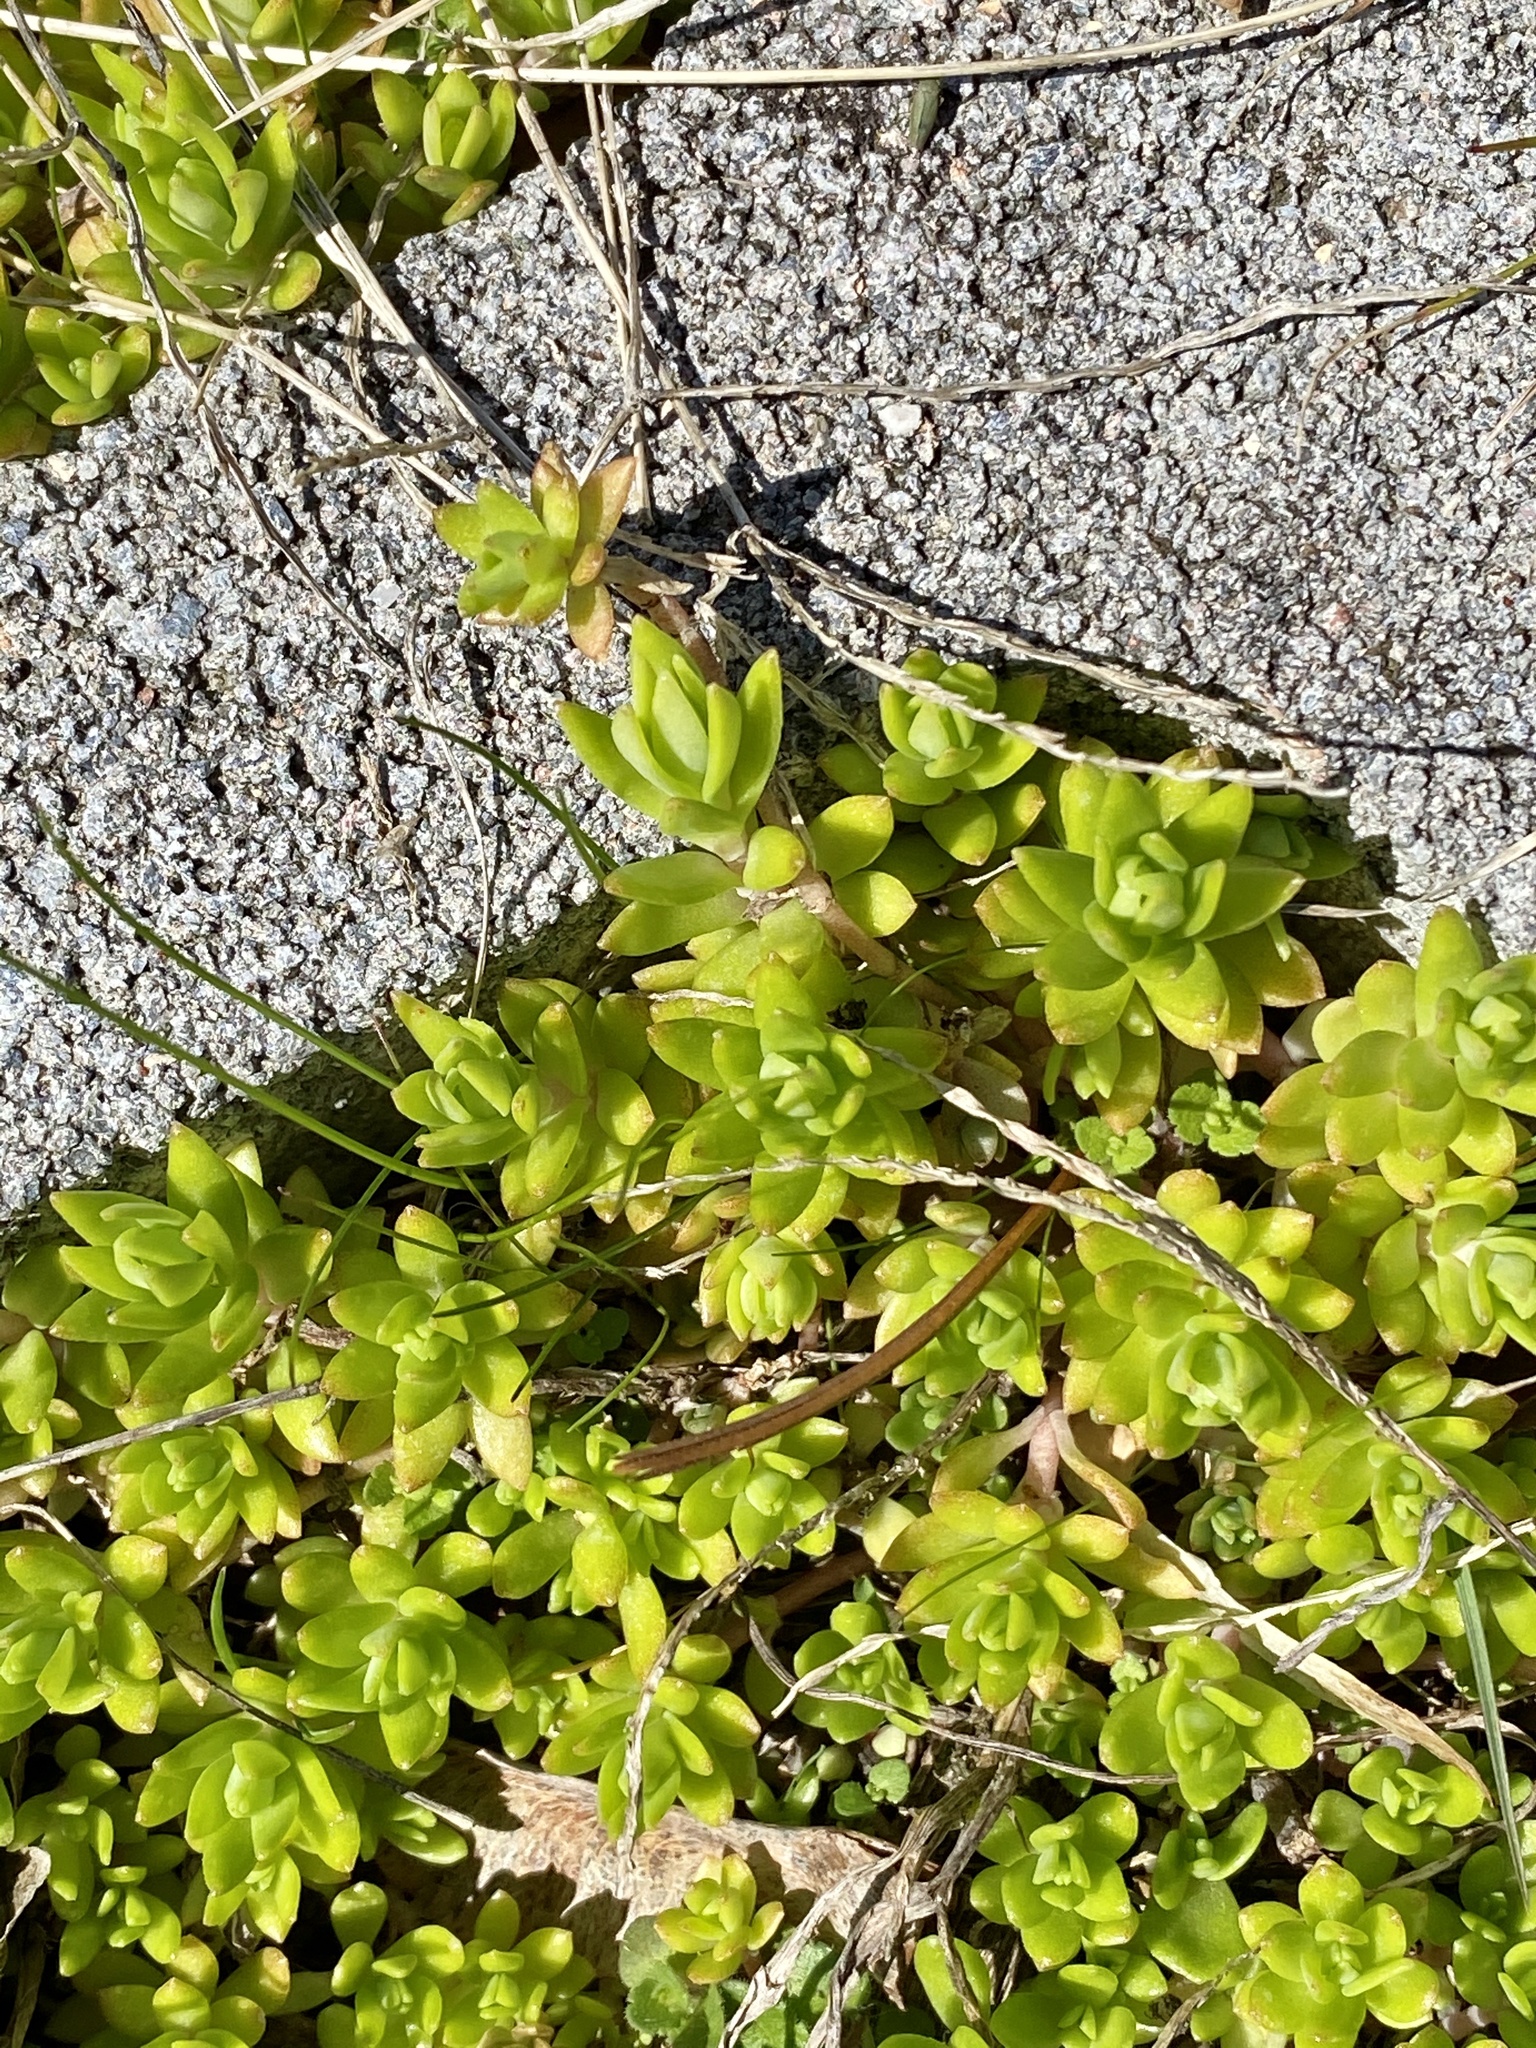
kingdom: Plantae
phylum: Tracheophyta
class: Magnoliopsida
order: Saxifragales
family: Crassulaceae
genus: Sedum
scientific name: Sedum sarmentosum
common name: Stringy stonecrop
